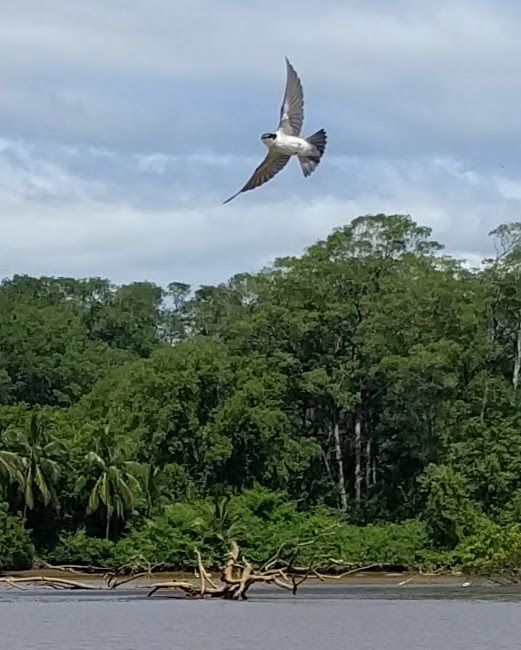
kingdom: Animalia
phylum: Chordata
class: Aves
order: Passeriformes
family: Hirundinidae
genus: Tachycineta
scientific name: Tachycineta albilinea
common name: Mangrove swallow
